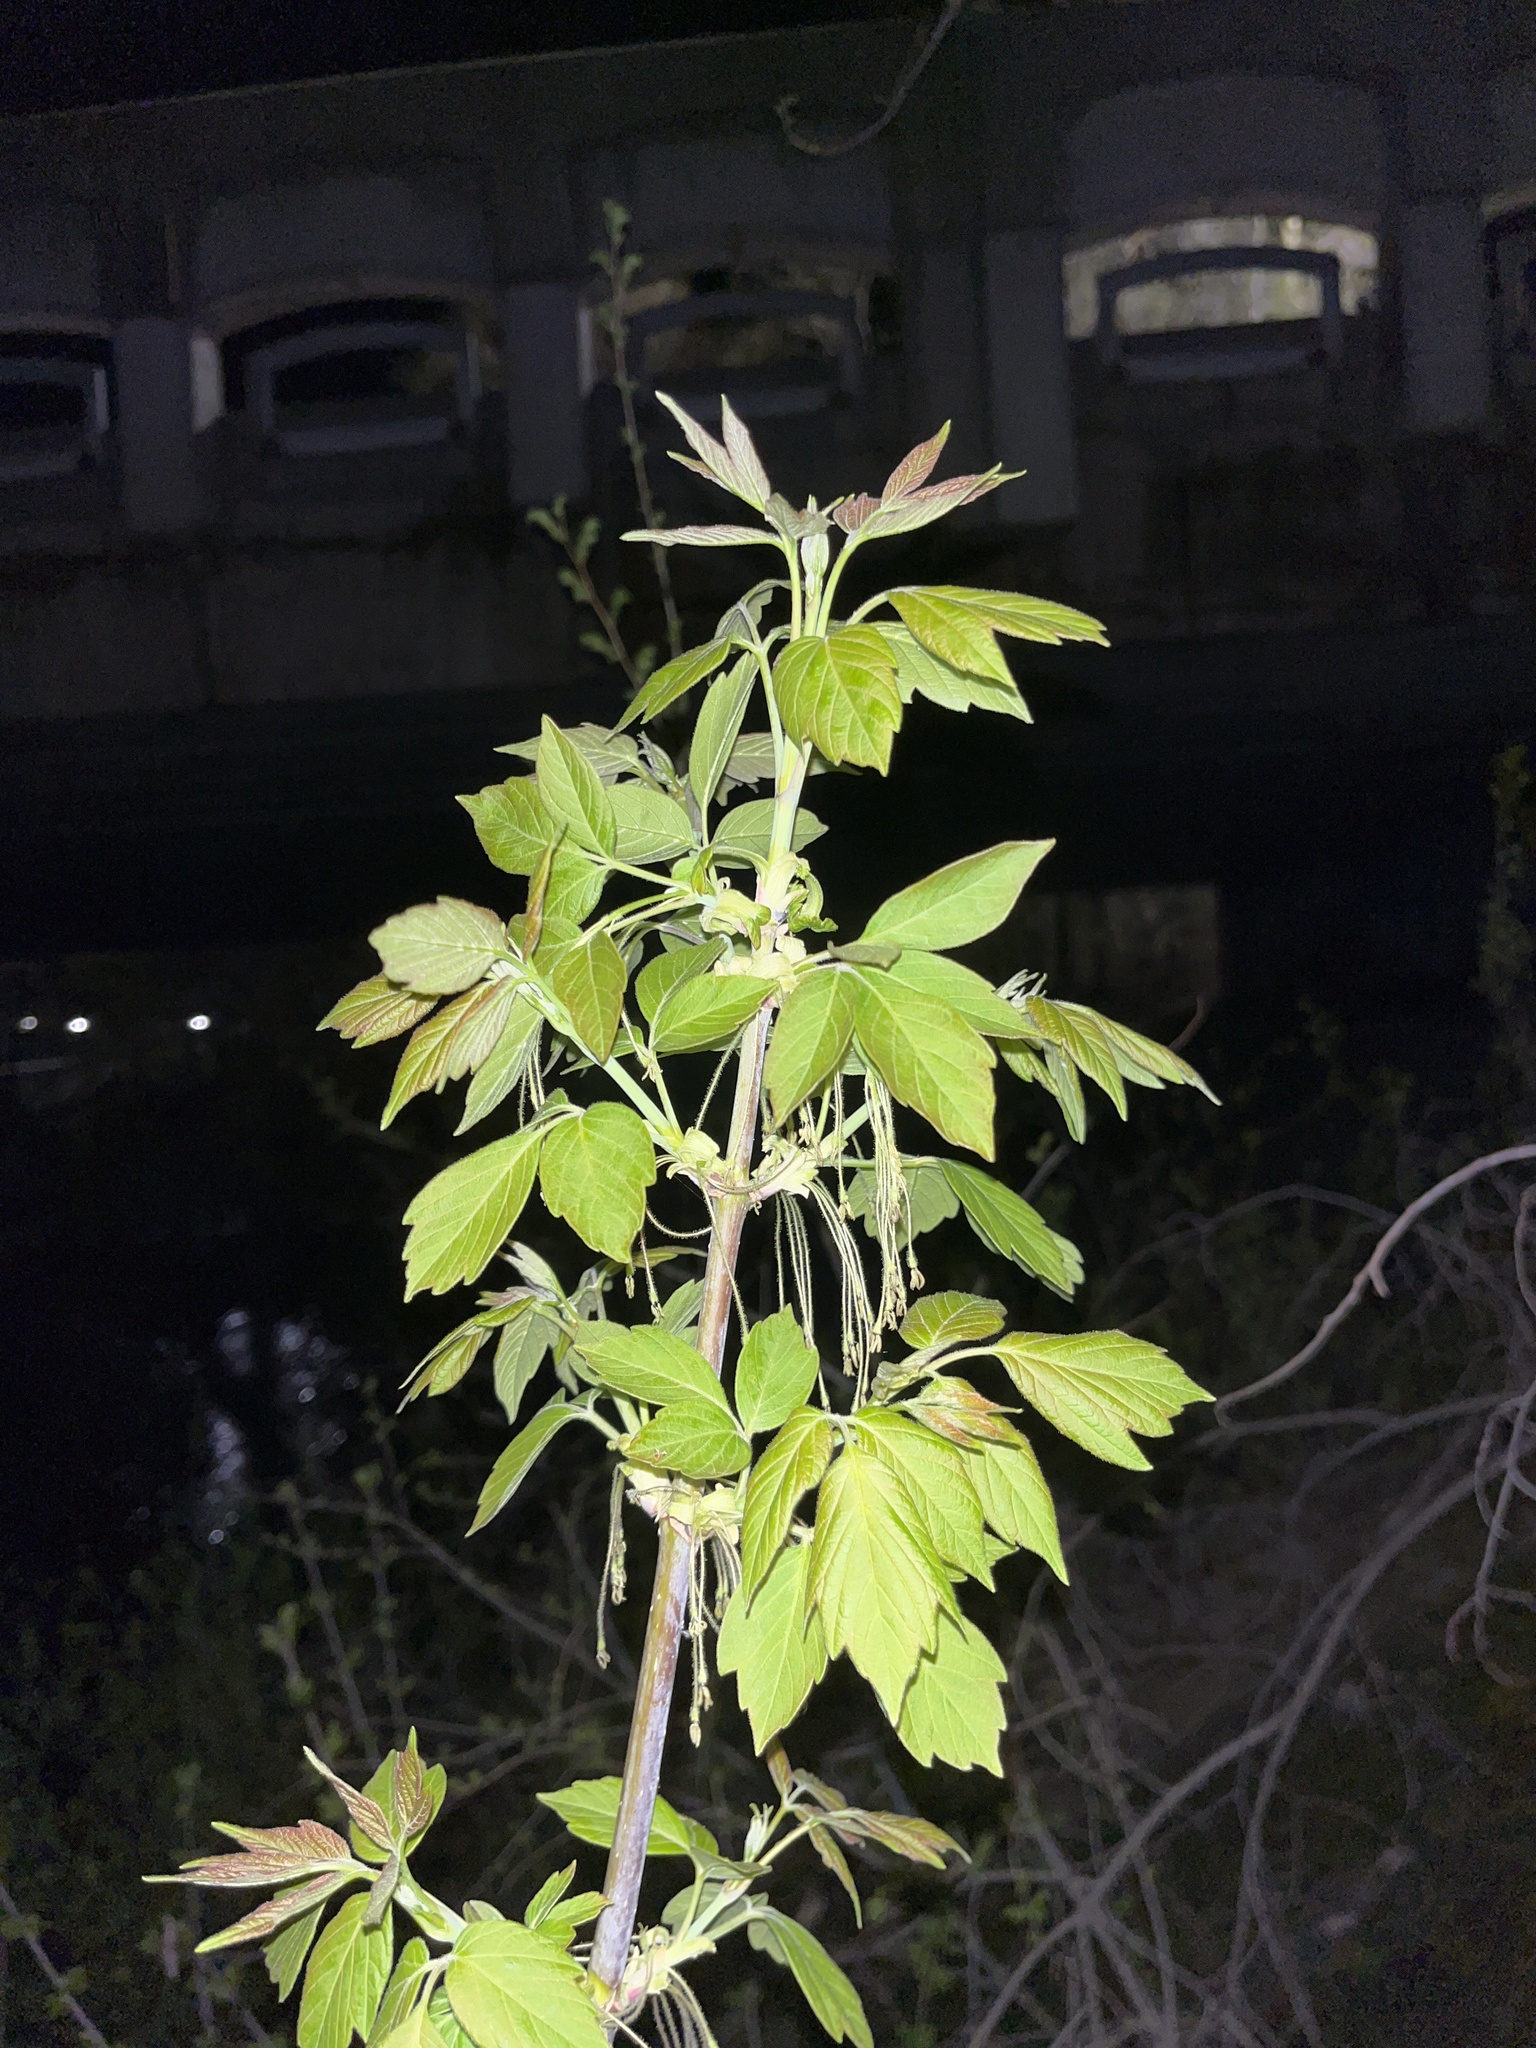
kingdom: Plantae
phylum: Tracheophyta
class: Magnoliopsida
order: Sapindales
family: Sapindaceae
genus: Acer
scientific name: Acer negundo
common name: Ashleaf maple
